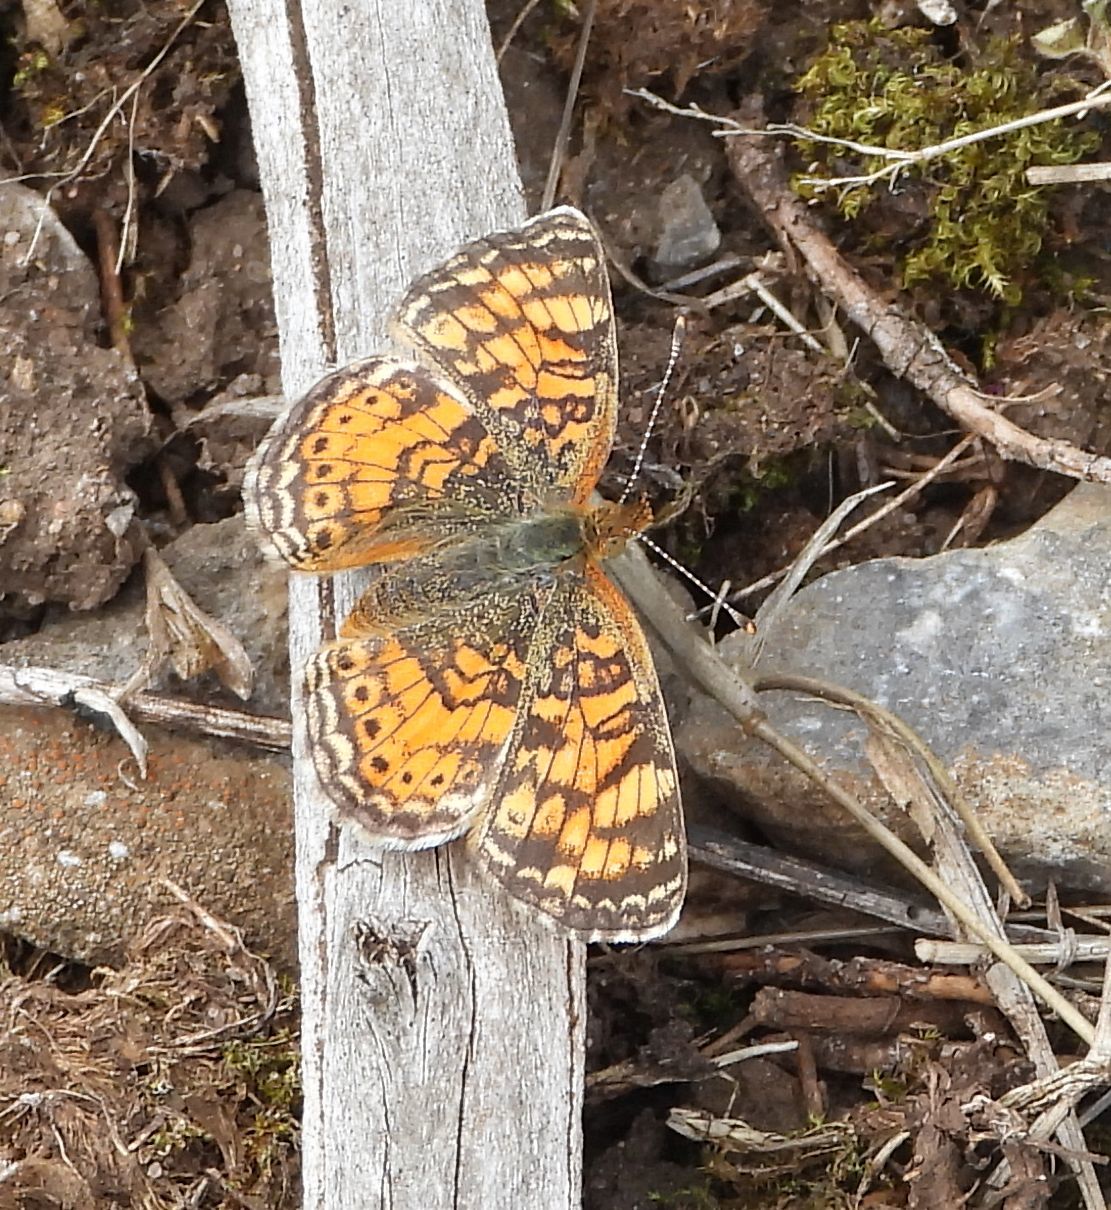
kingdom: Animalia
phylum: Arthropoda
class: Insecta
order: Lepidoptera
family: Nymphalidae
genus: Phyciodes
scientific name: Phyciodes tharos
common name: Pearl crescent
